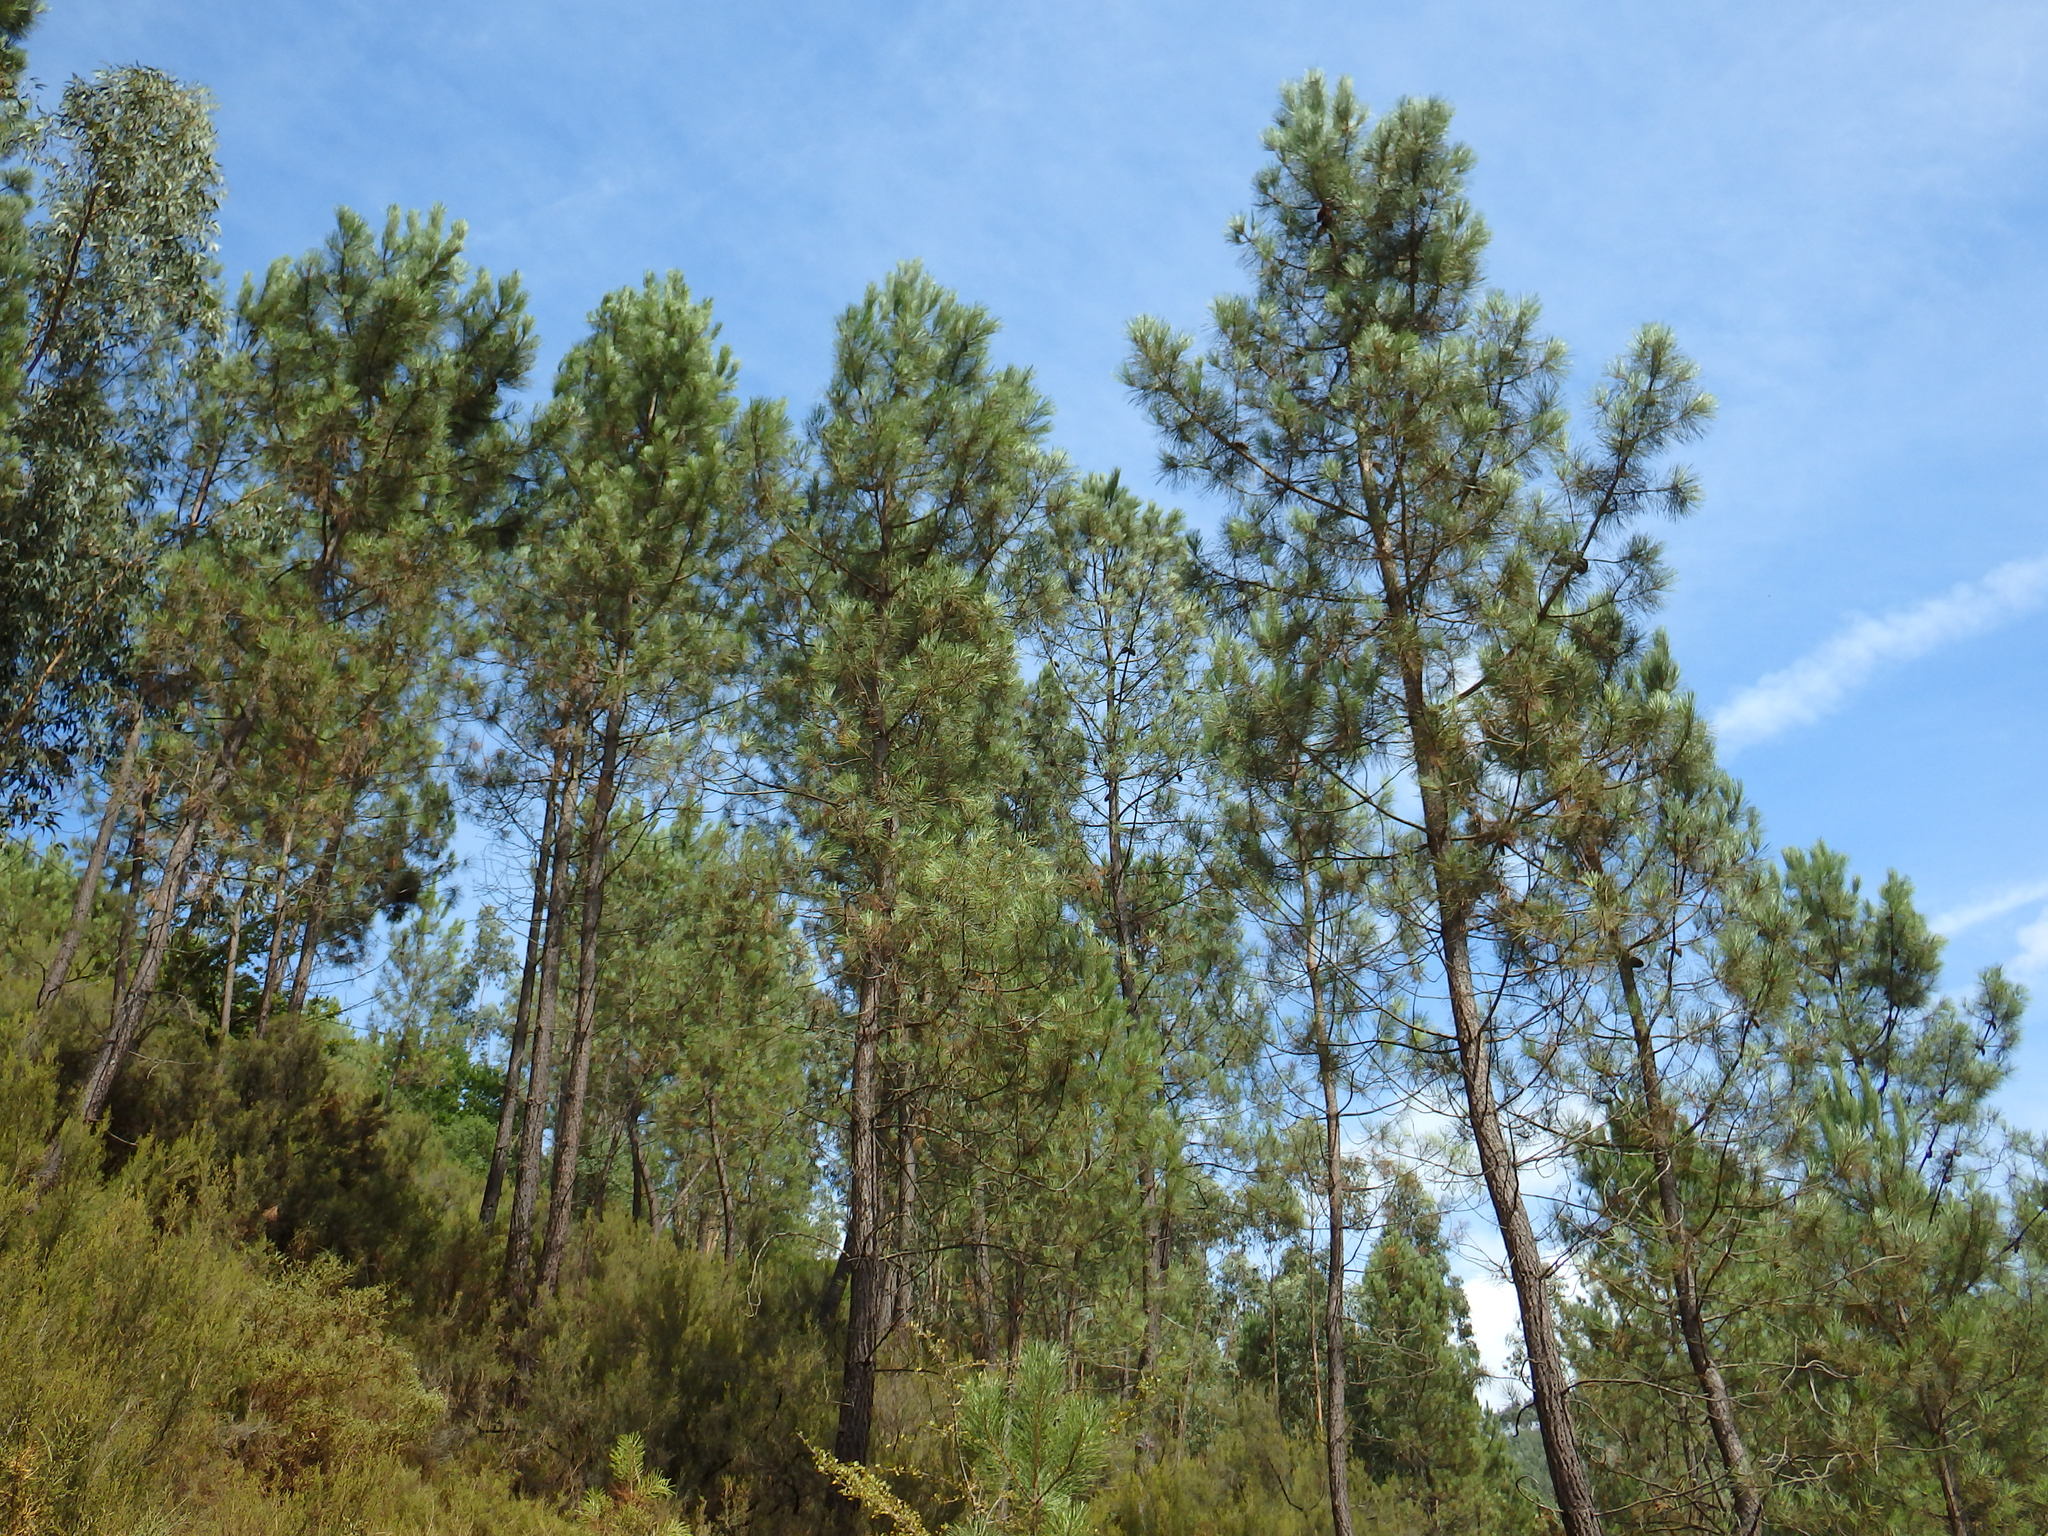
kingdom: Plantae
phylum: Tracheophyta
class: Pinopsida
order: Pinales
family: Pinaceae
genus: Pinus
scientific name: Pinus pinaster
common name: Maritime pine
